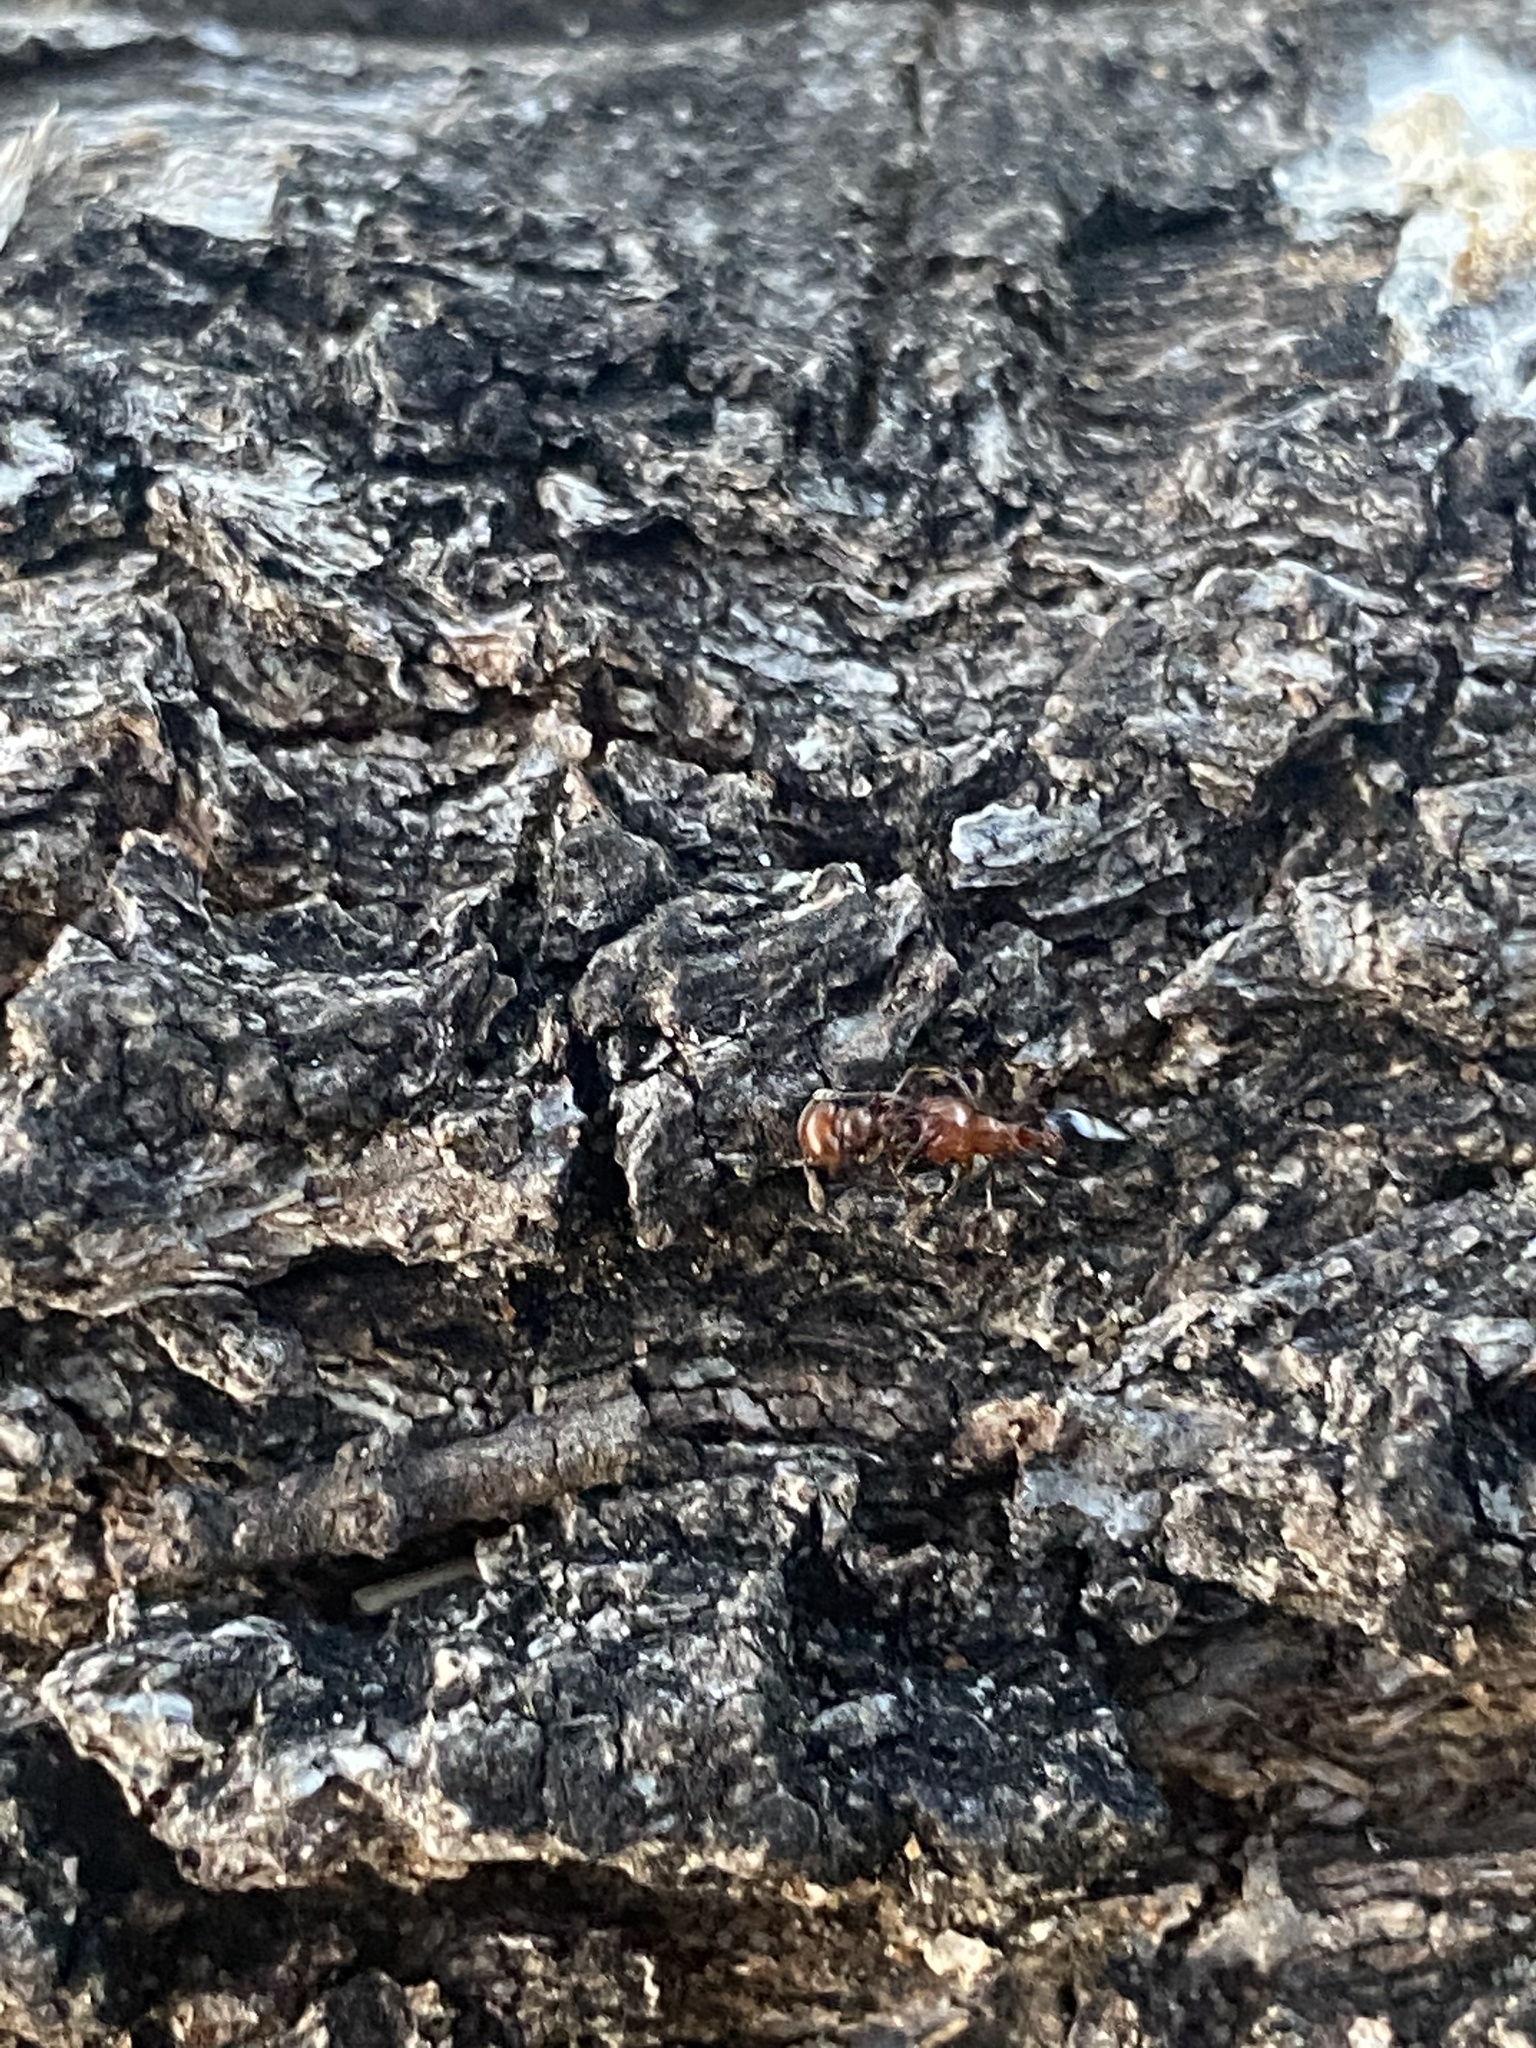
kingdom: Animalia
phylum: Arthropoda
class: Insecta
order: Hymenoptera
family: Formicidae
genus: Crematogaster
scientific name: Crematogaster laeviuscula
